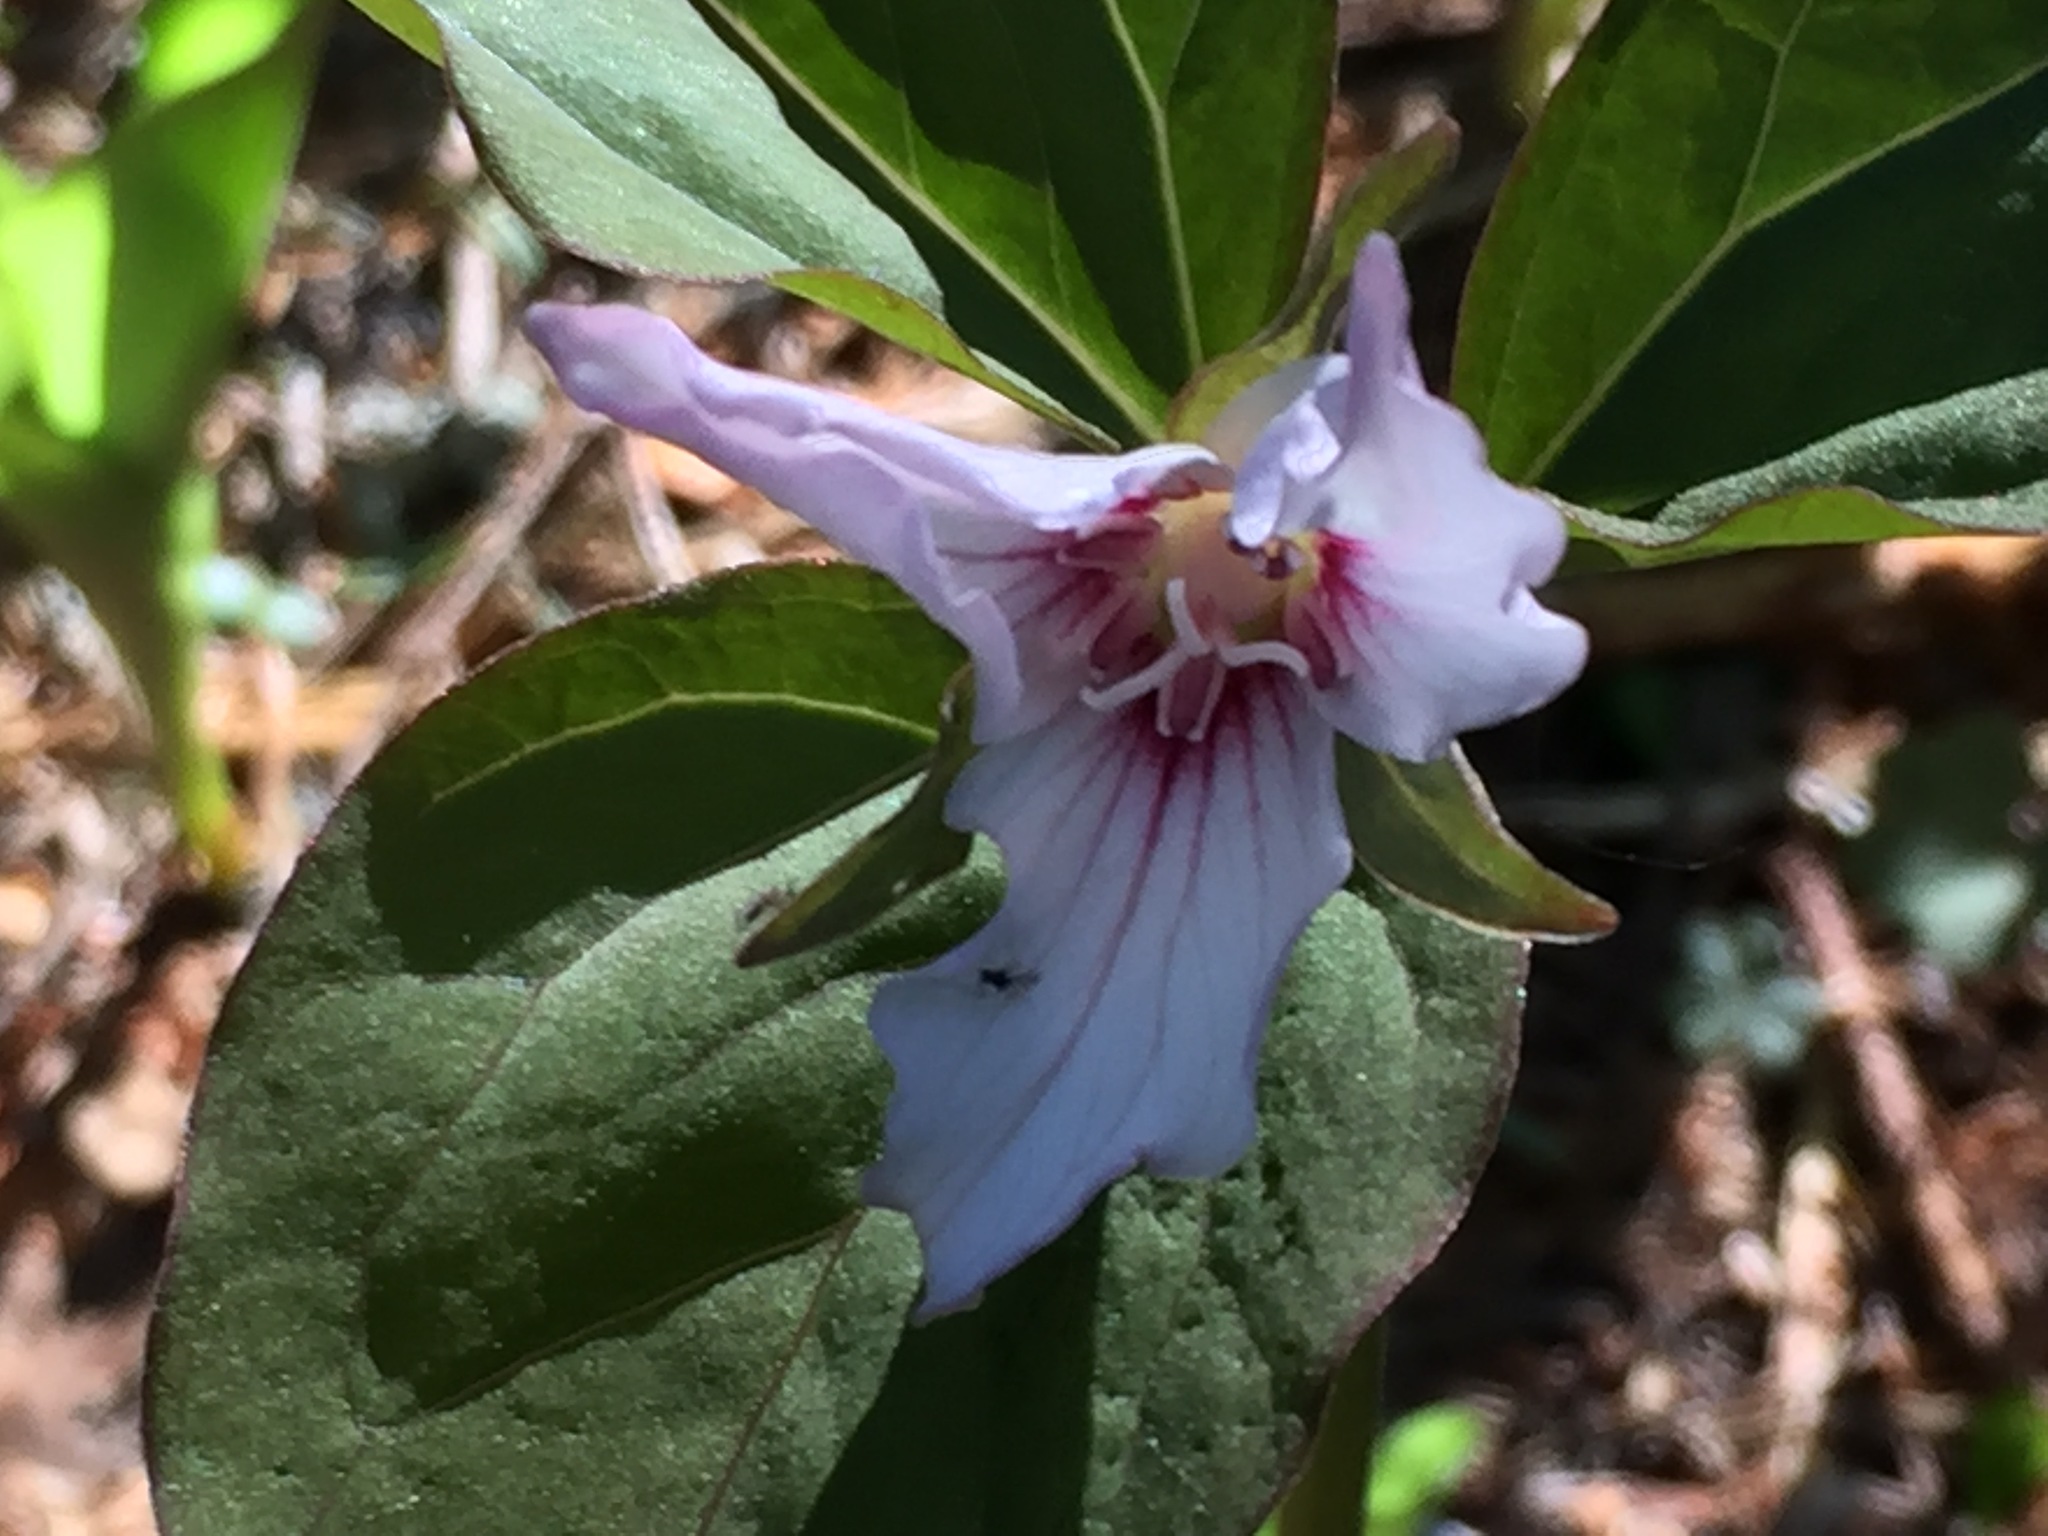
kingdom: Plantae
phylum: Tracheophyta
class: Liliopsida
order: Liliales
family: Melanthiaceae
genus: Trillium
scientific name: Trillium undulatum
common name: Paint trillium
